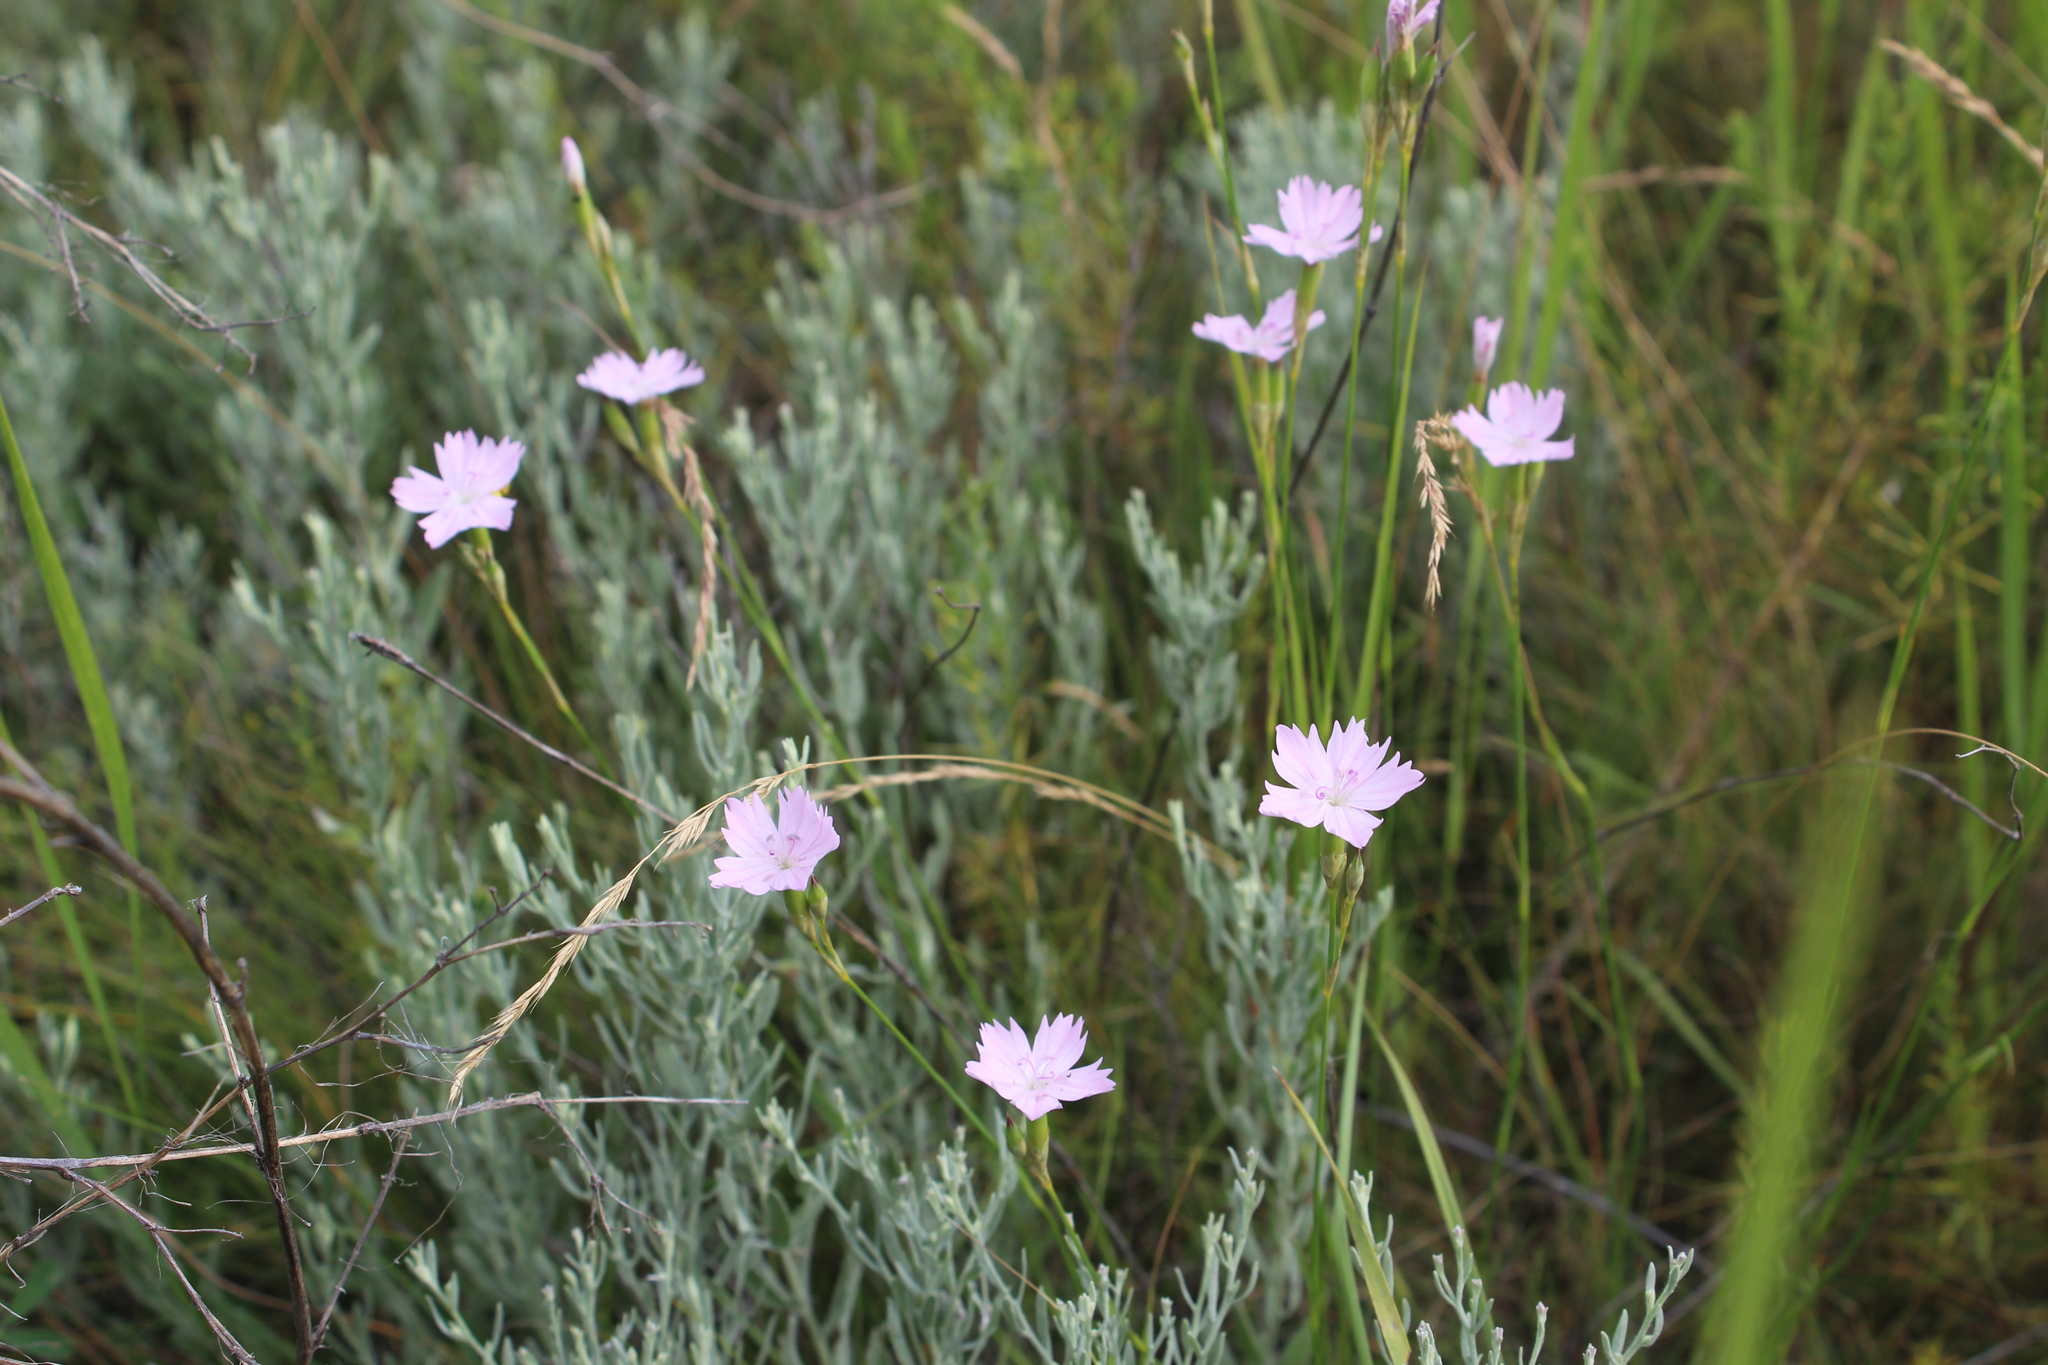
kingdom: Plantae
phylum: Tracheophyta
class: Magnoliopsida
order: Caryophyllales
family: Caryophyllaceae
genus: Dianthus
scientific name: Dianthus polymorphus
